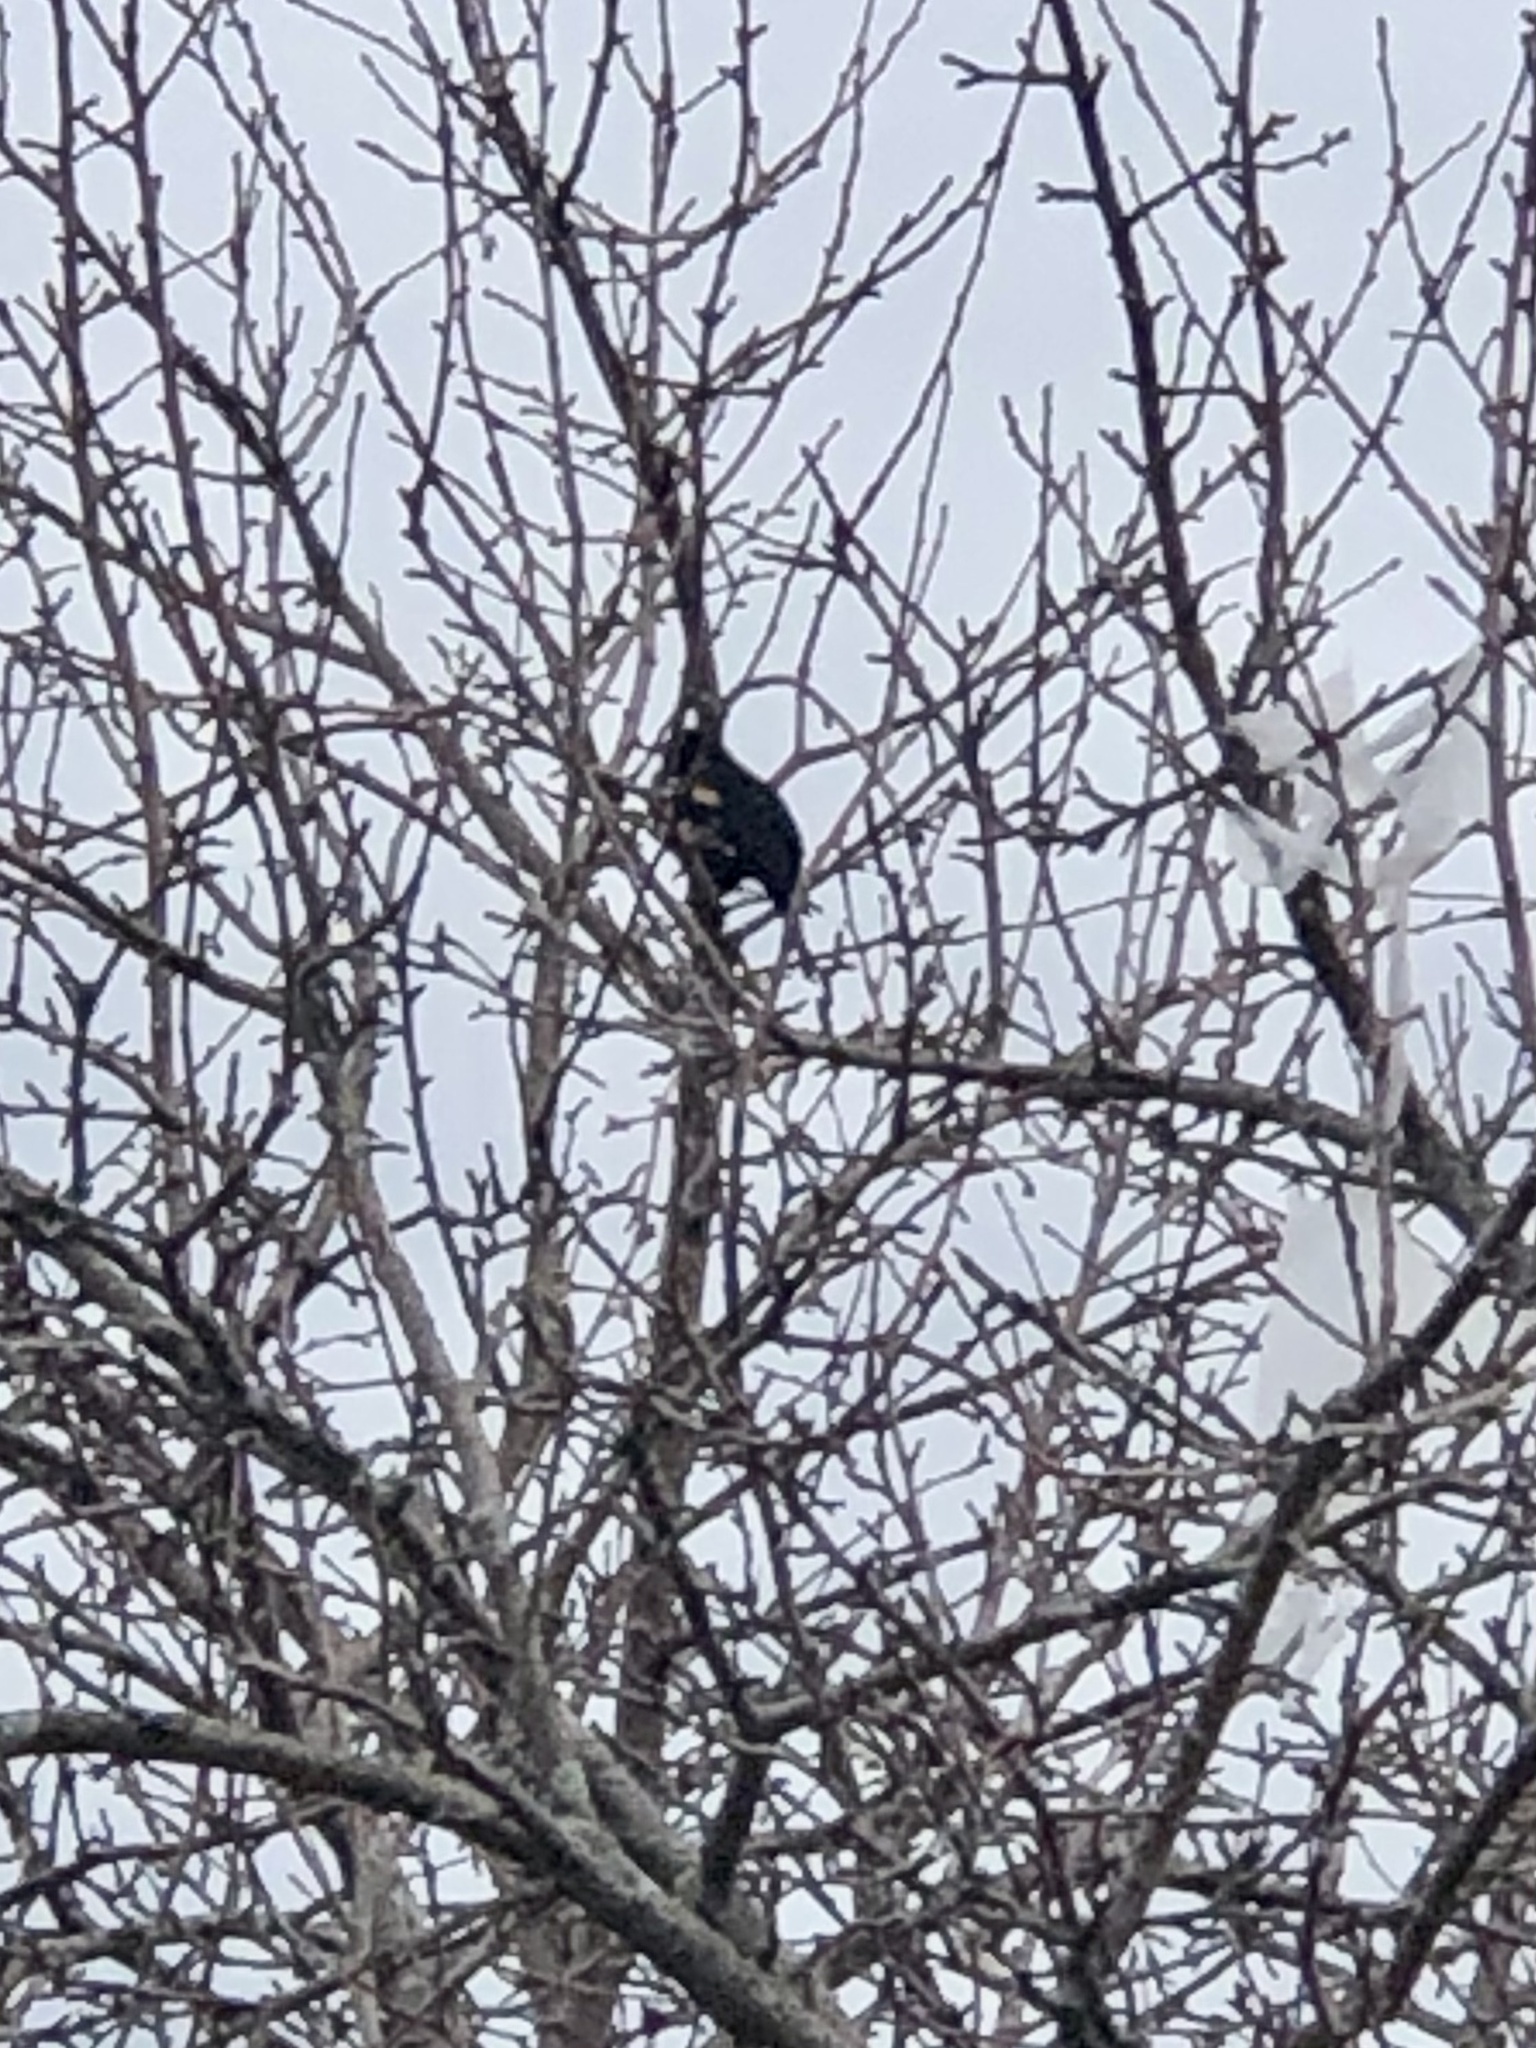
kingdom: Animalia
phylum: Chordata
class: Aves
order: Passeriformes
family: Icteridae
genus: Agelaius
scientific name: Agelaius phoeniceus
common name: Red-winged blackbird
